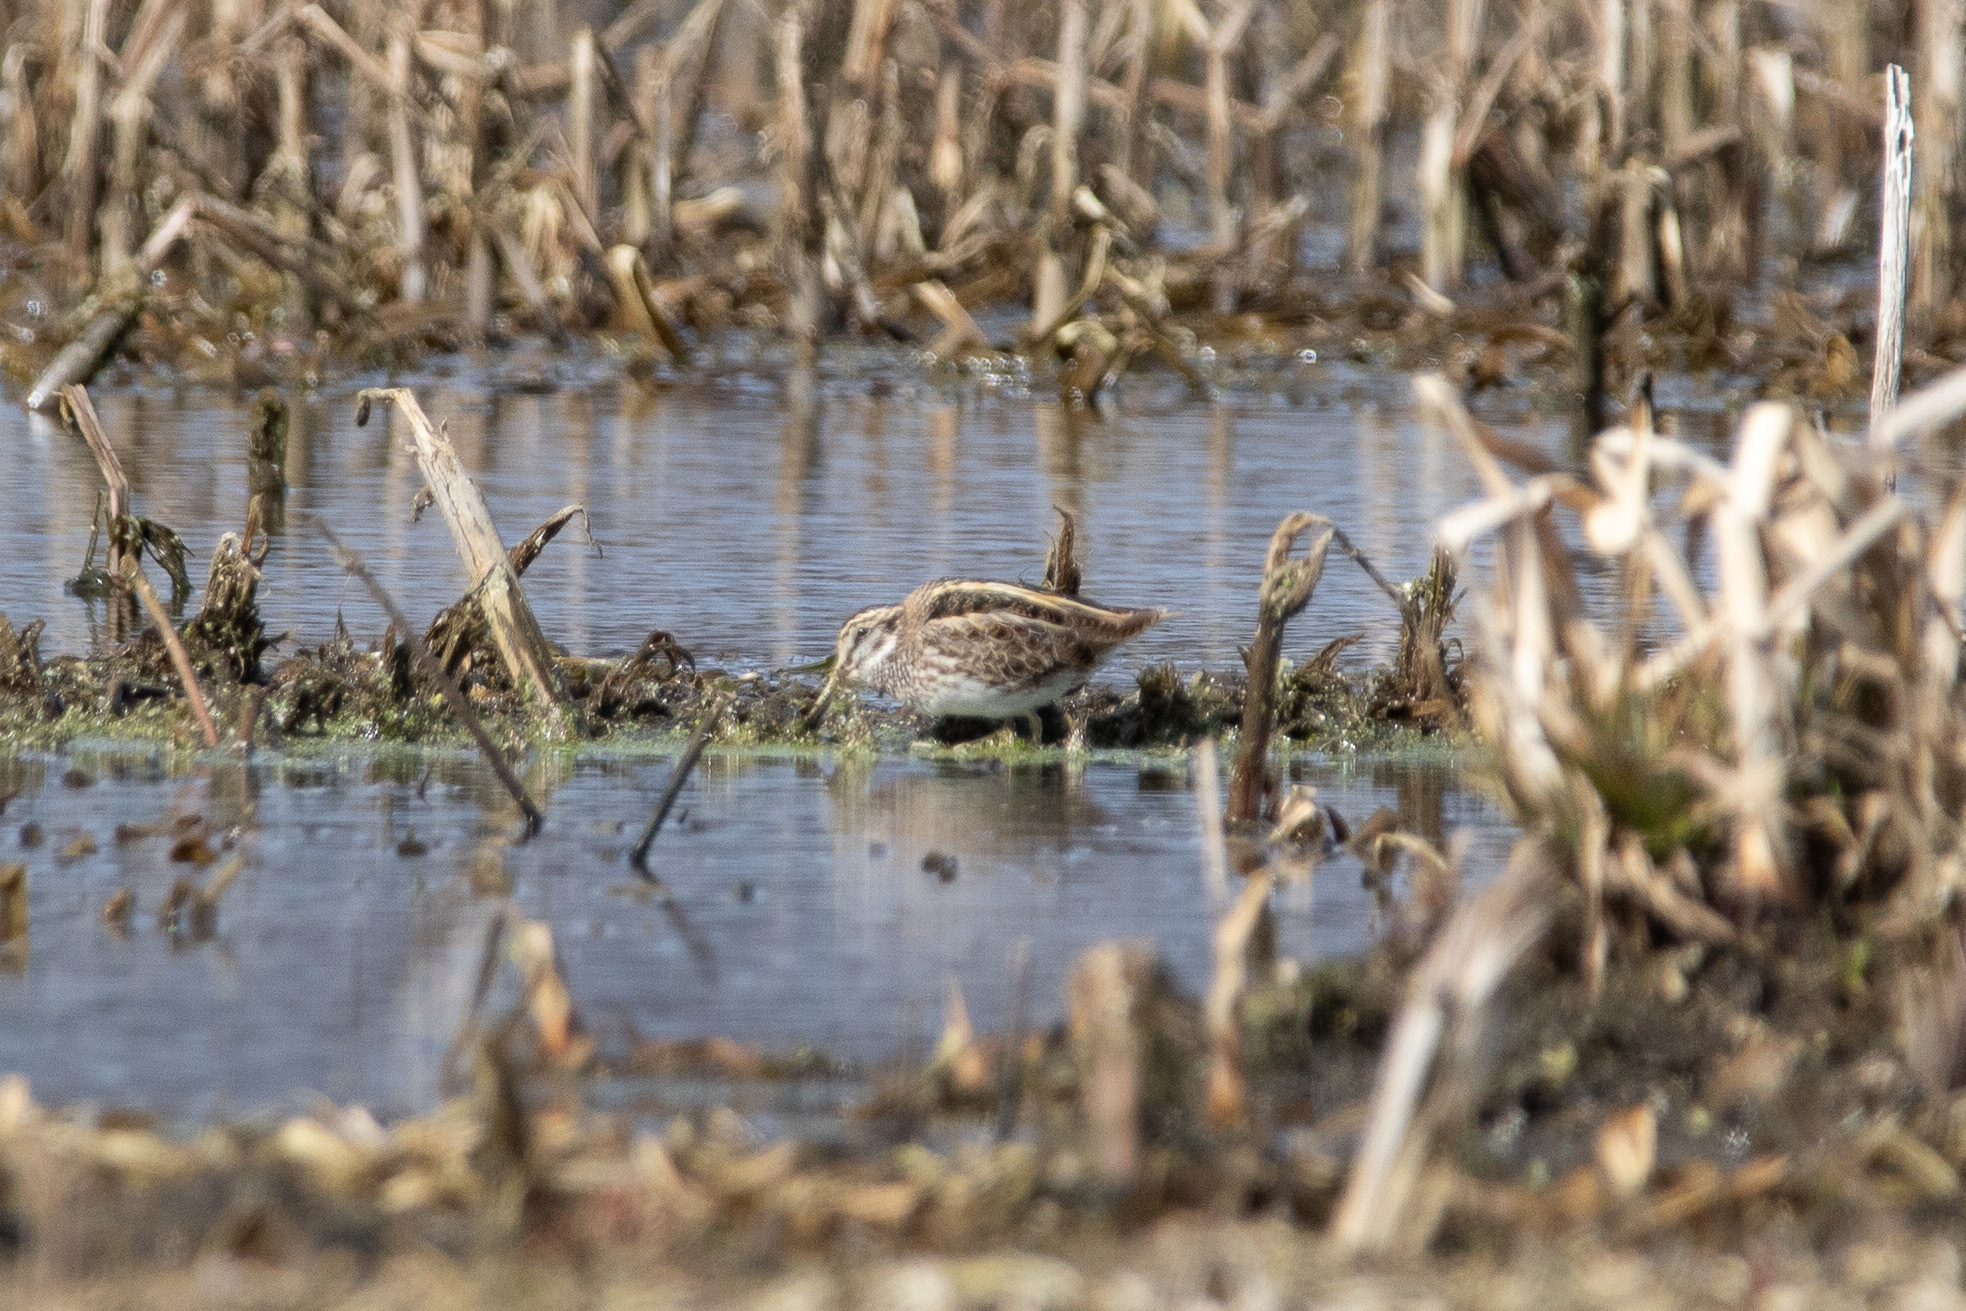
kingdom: Animalia
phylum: Chordata
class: Aves
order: Charadriiformes
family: Scolopacidae
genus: Lymnocryptes
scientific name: Lymnocryptes minimus
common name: Jack snipe
